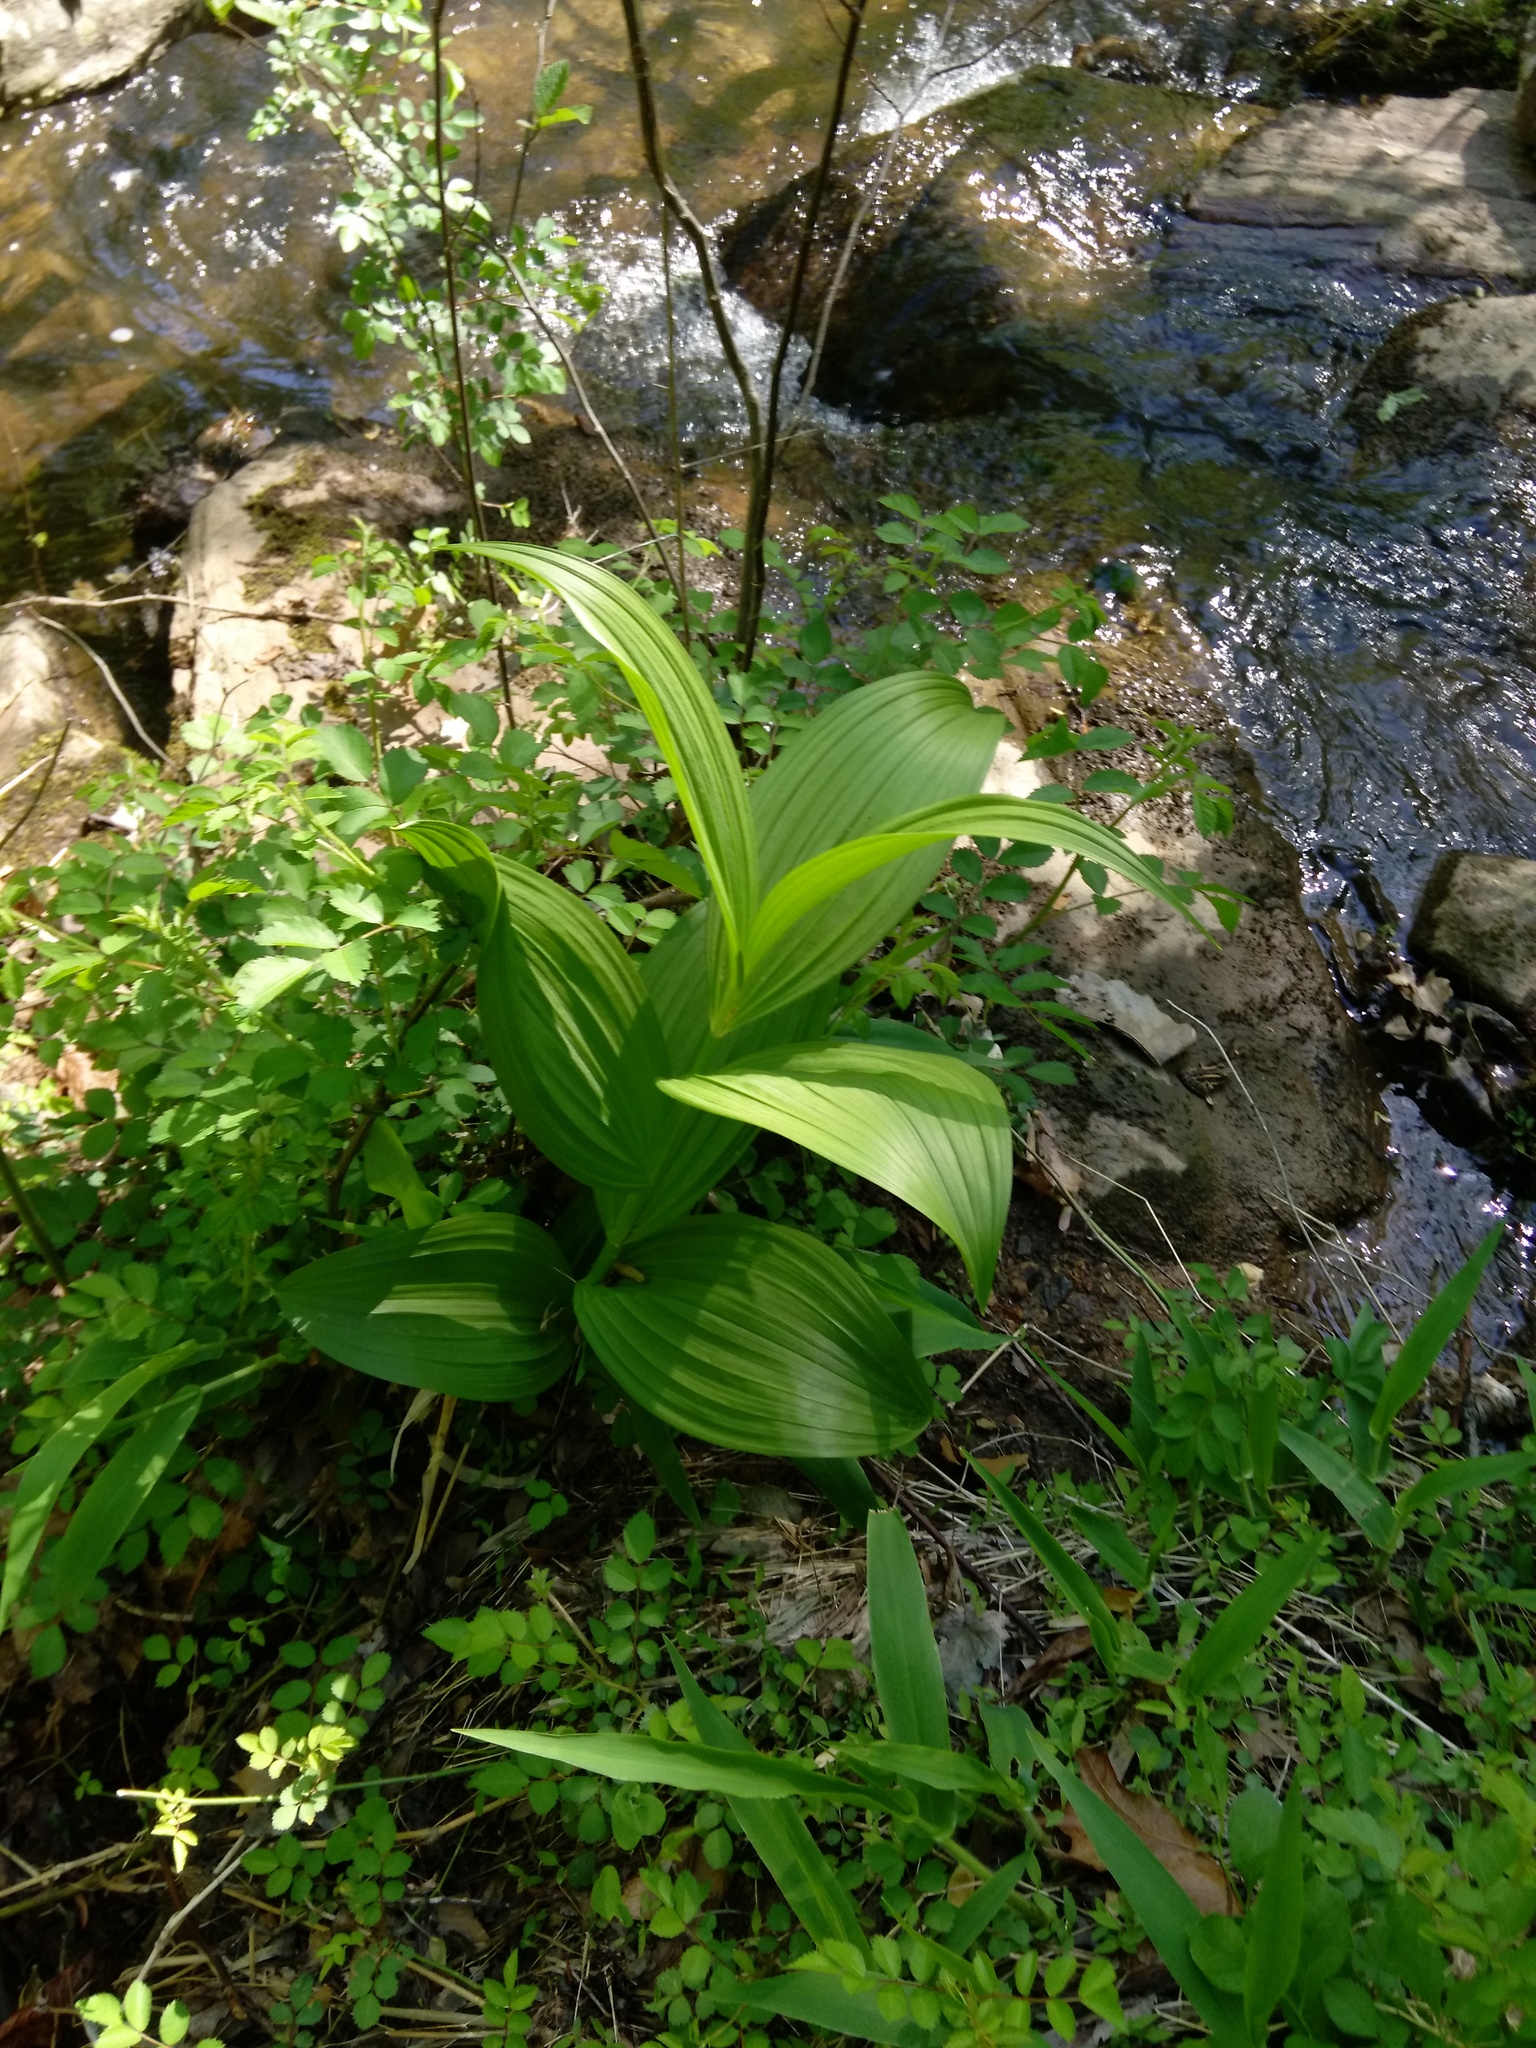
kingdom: Plantae
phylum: Tracheophyta
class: Liliopsida
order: Liliales
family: Melanthiaceae
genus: Veratrum
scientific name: Veratrum viride
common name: American false hellebore
